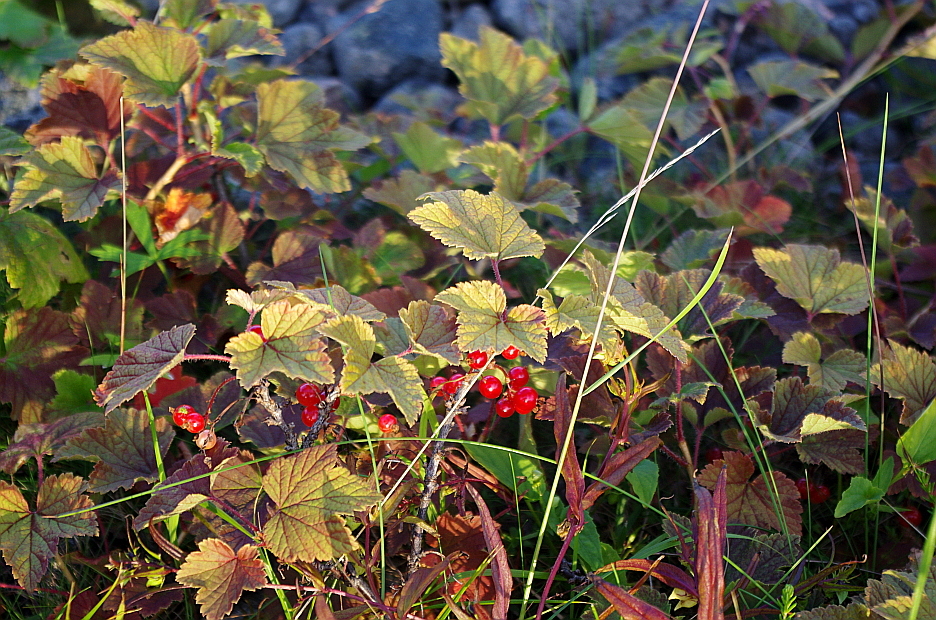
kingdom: Plantae
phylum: Tracheophyta
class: Magnoliopsida
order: Saxifragales
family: Grossulariaceae
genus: Ribes
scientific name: Ribes spicatum
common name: Downy currant
